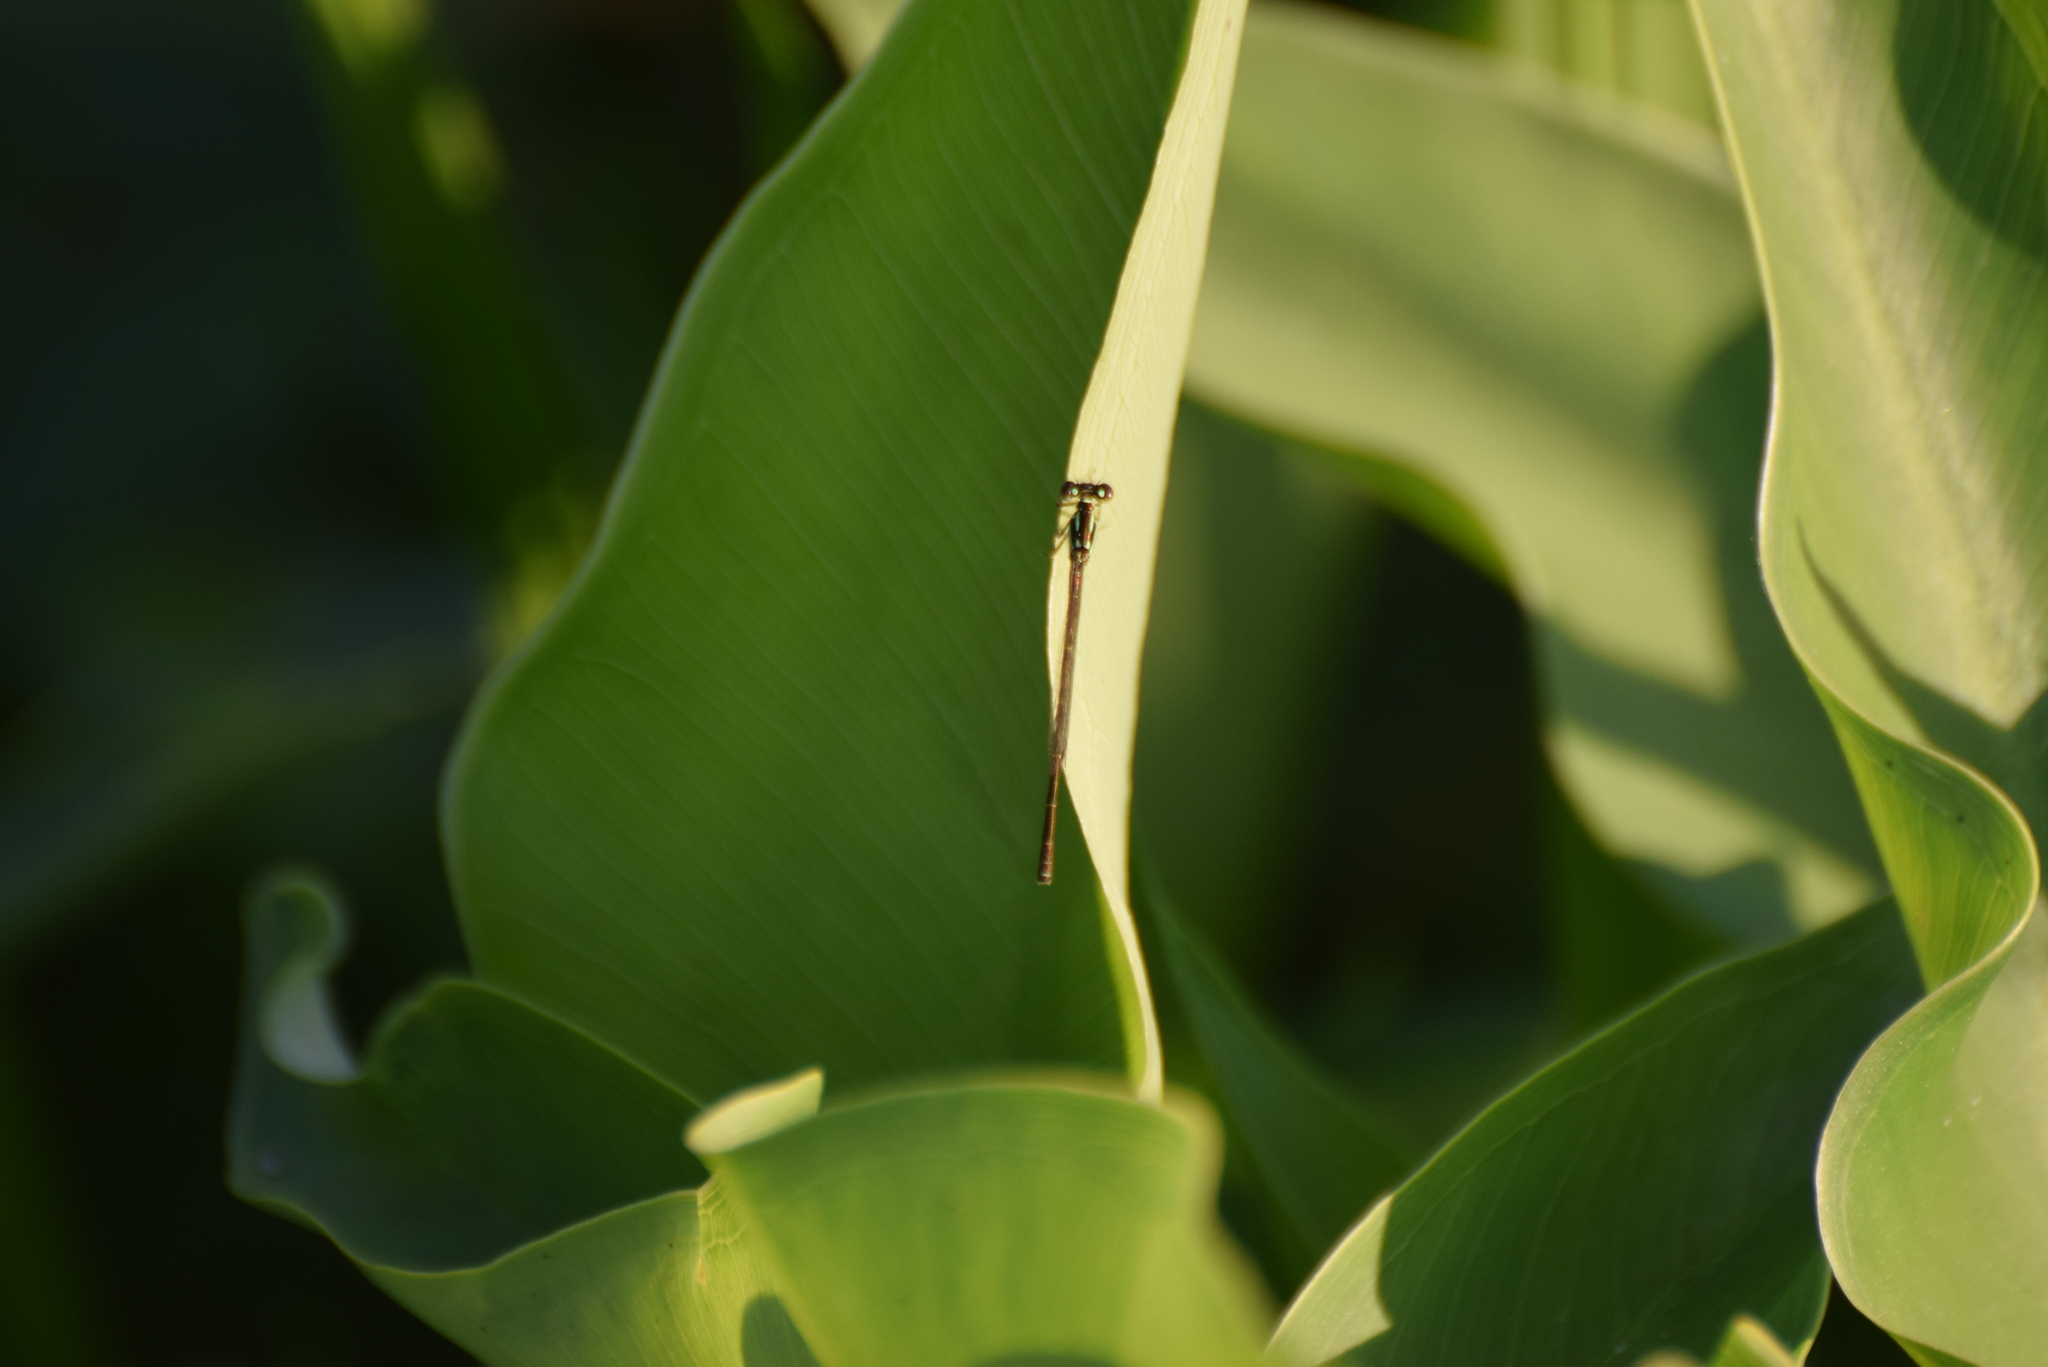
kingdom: Animalia
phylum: Arthropoda
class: Insecta
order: Odonata
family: Coenagrionidae
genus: Ischnura
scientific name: Ischnura posita
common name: Fragile forktail
